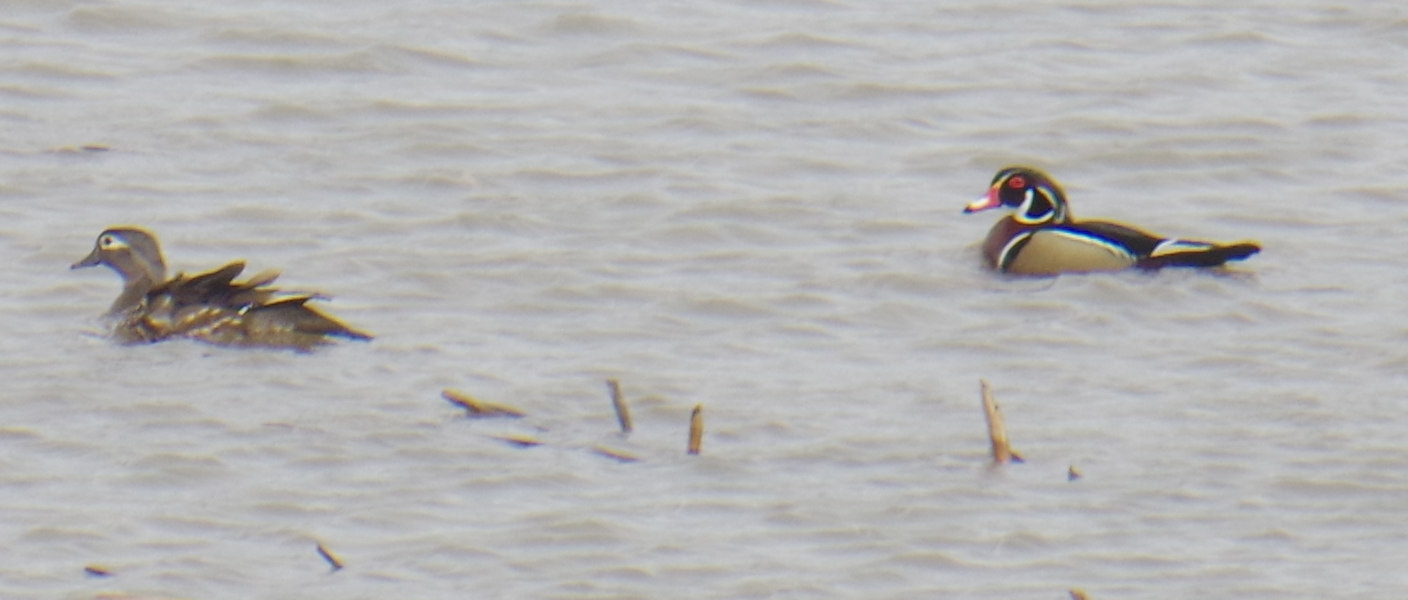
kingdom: Animalia
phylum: Chordata
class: Aves
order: Anseriformes
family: Anatidae
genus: Aix
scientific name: Aix sponsa
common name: Wood duck
